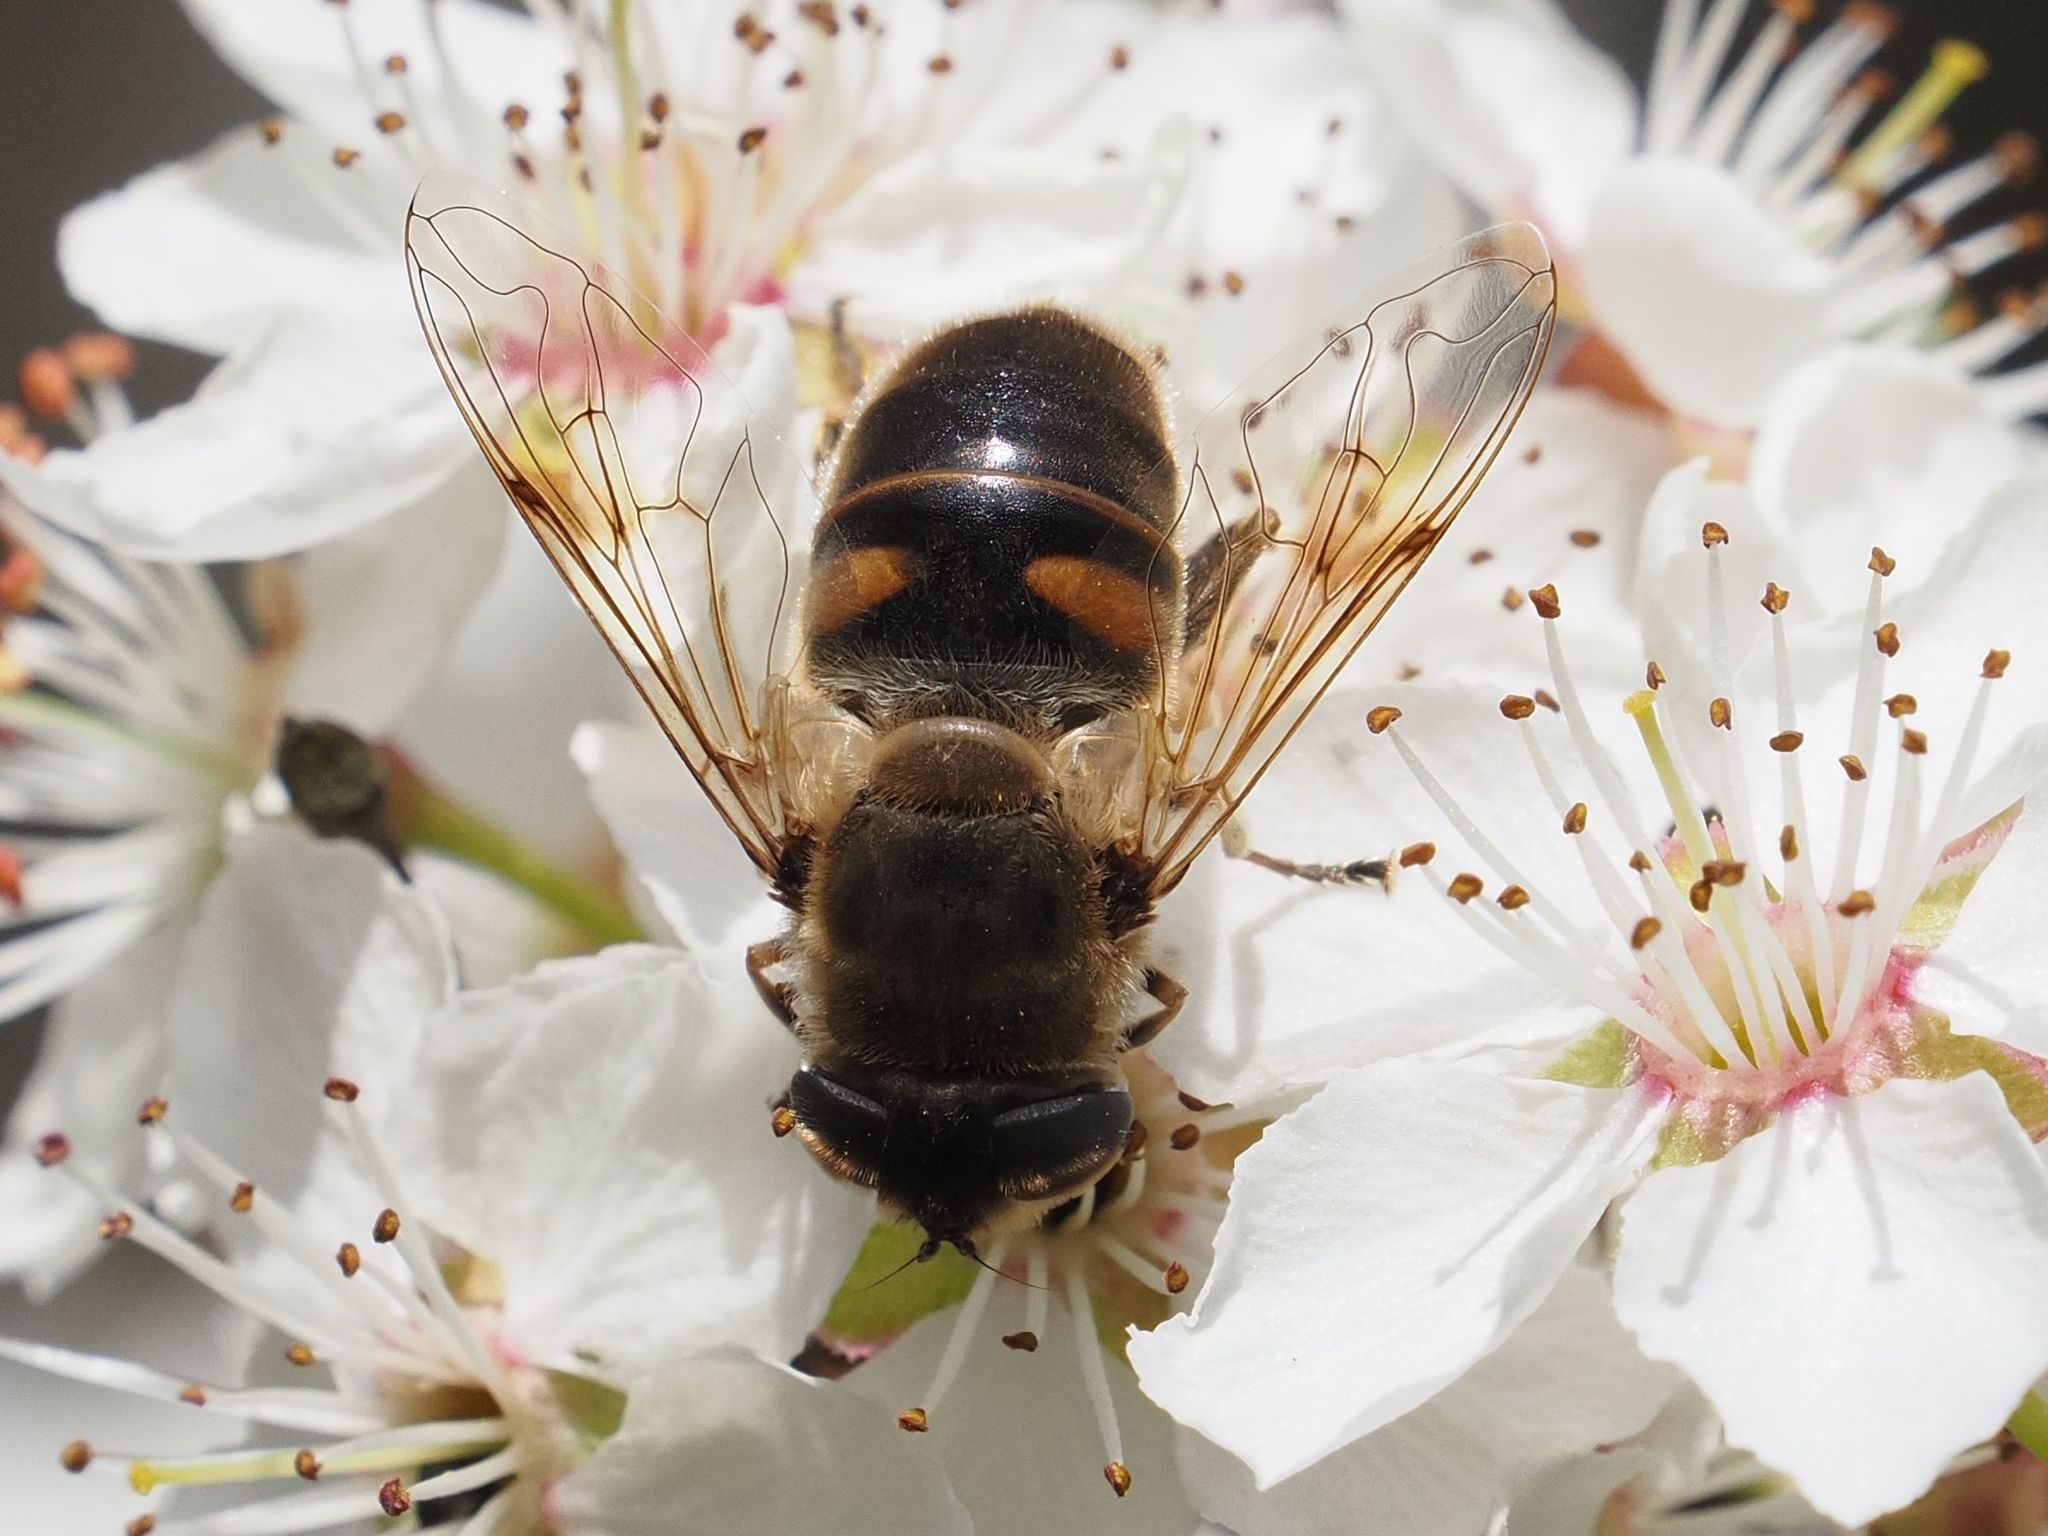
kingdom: Animalia
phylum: Arthropoda
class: Insecta
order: Diptera
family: Syrphidae
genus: Eristalis
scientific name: Eristalis tenax
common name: Drone fly
